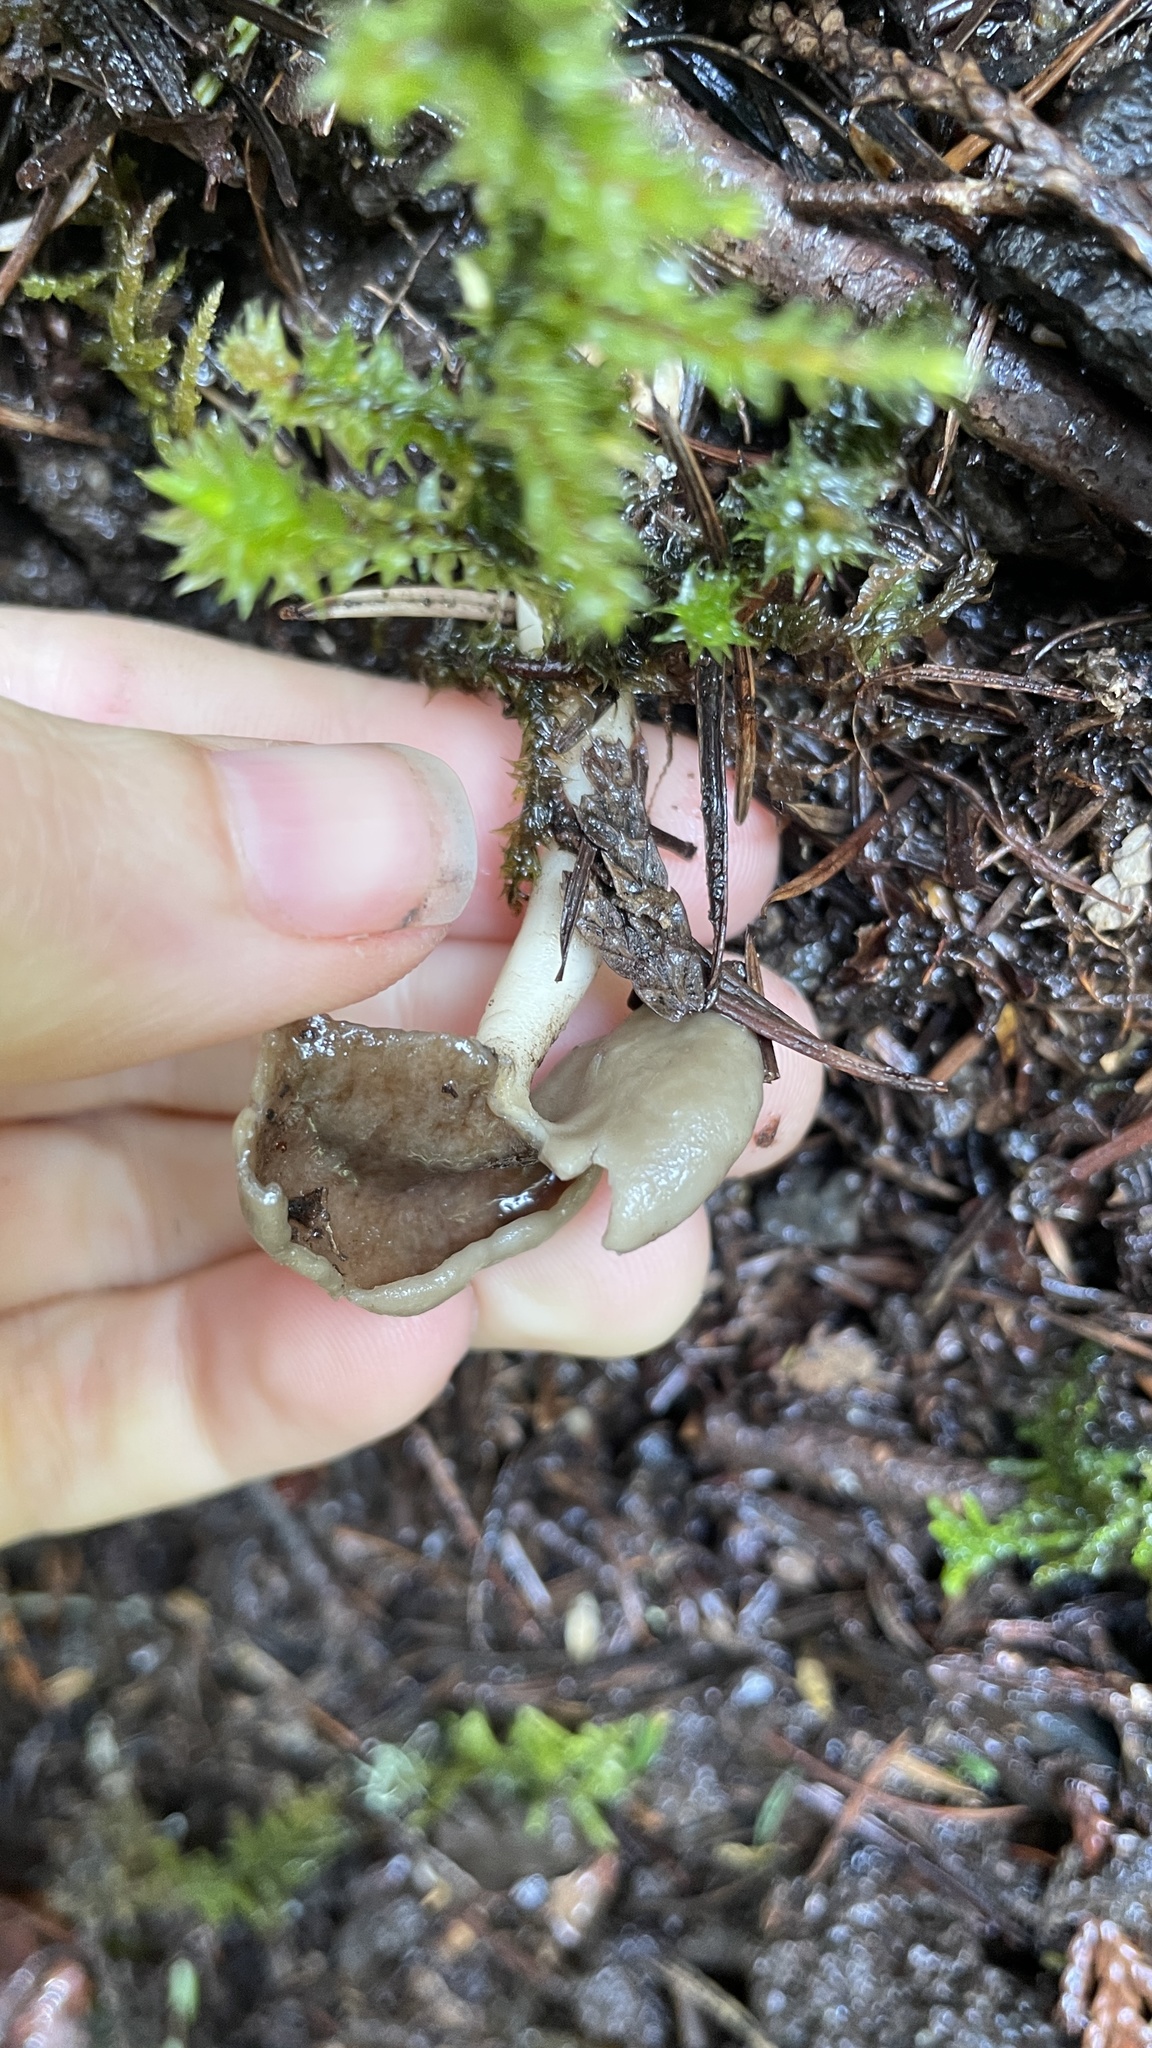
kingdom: Fungi
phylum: Ascomycota
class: Pezizomycetes
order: Pezizales
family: Helvellaceae
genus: Helvella
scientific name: Helvella compressa
